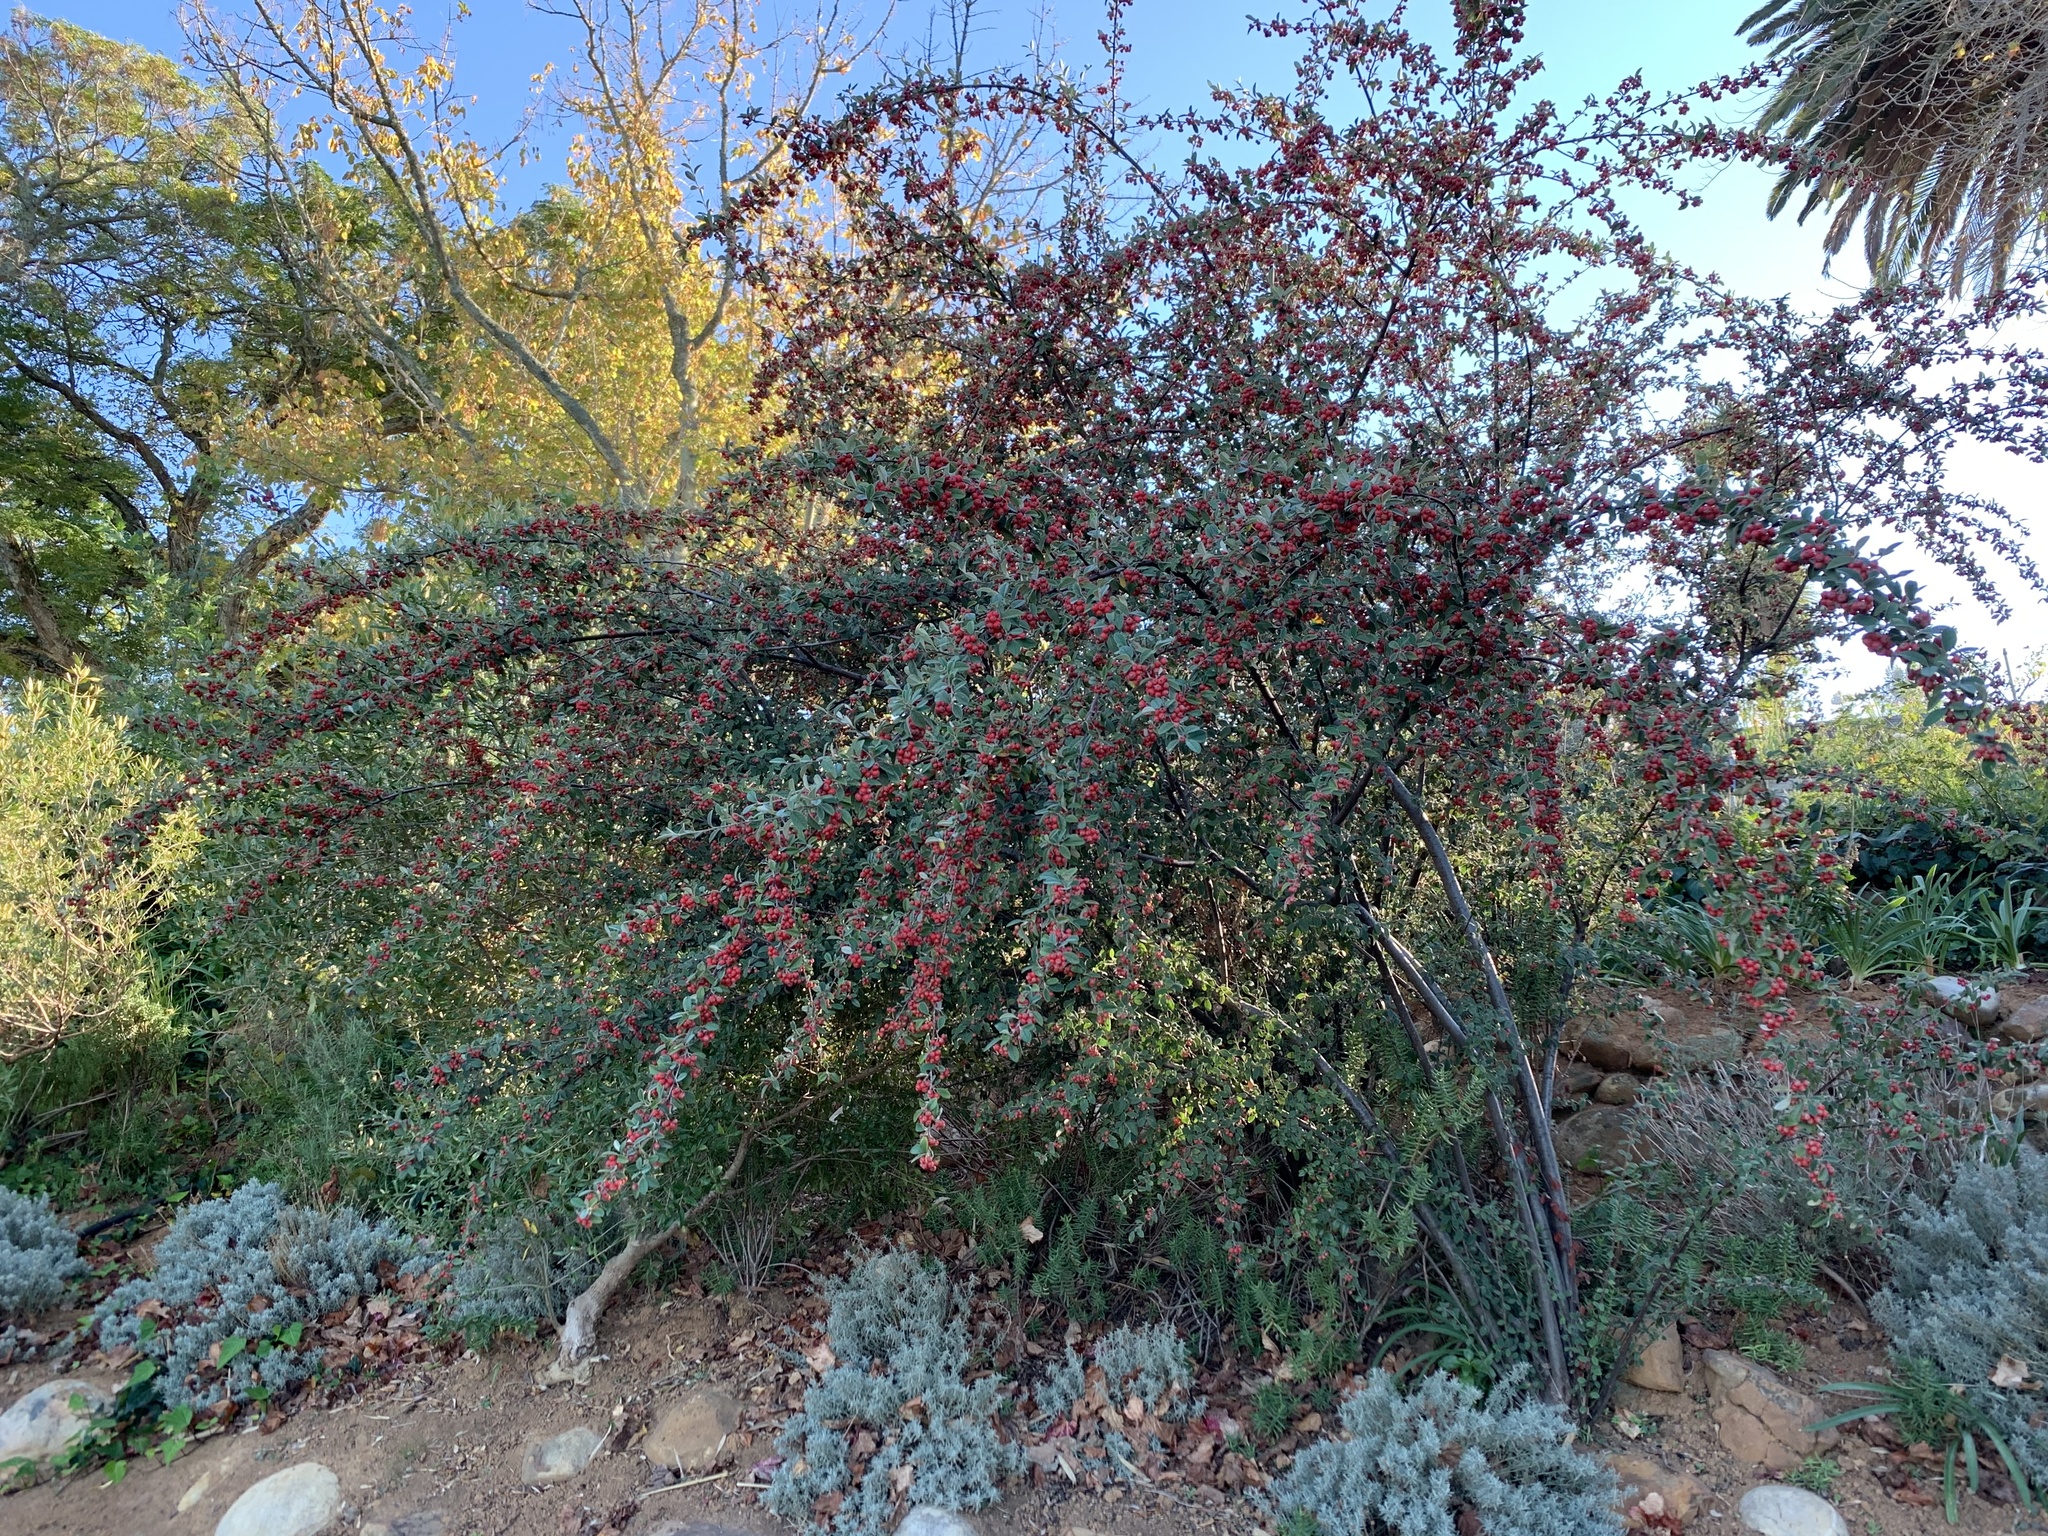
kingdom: Plantae
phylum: Tracheophyta
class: Magnoliopsida
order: Rosales
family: Rosaceae
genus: Cotoneaster
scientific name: Cotoneaster pannosus
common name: Silverleaf cotoneaster
